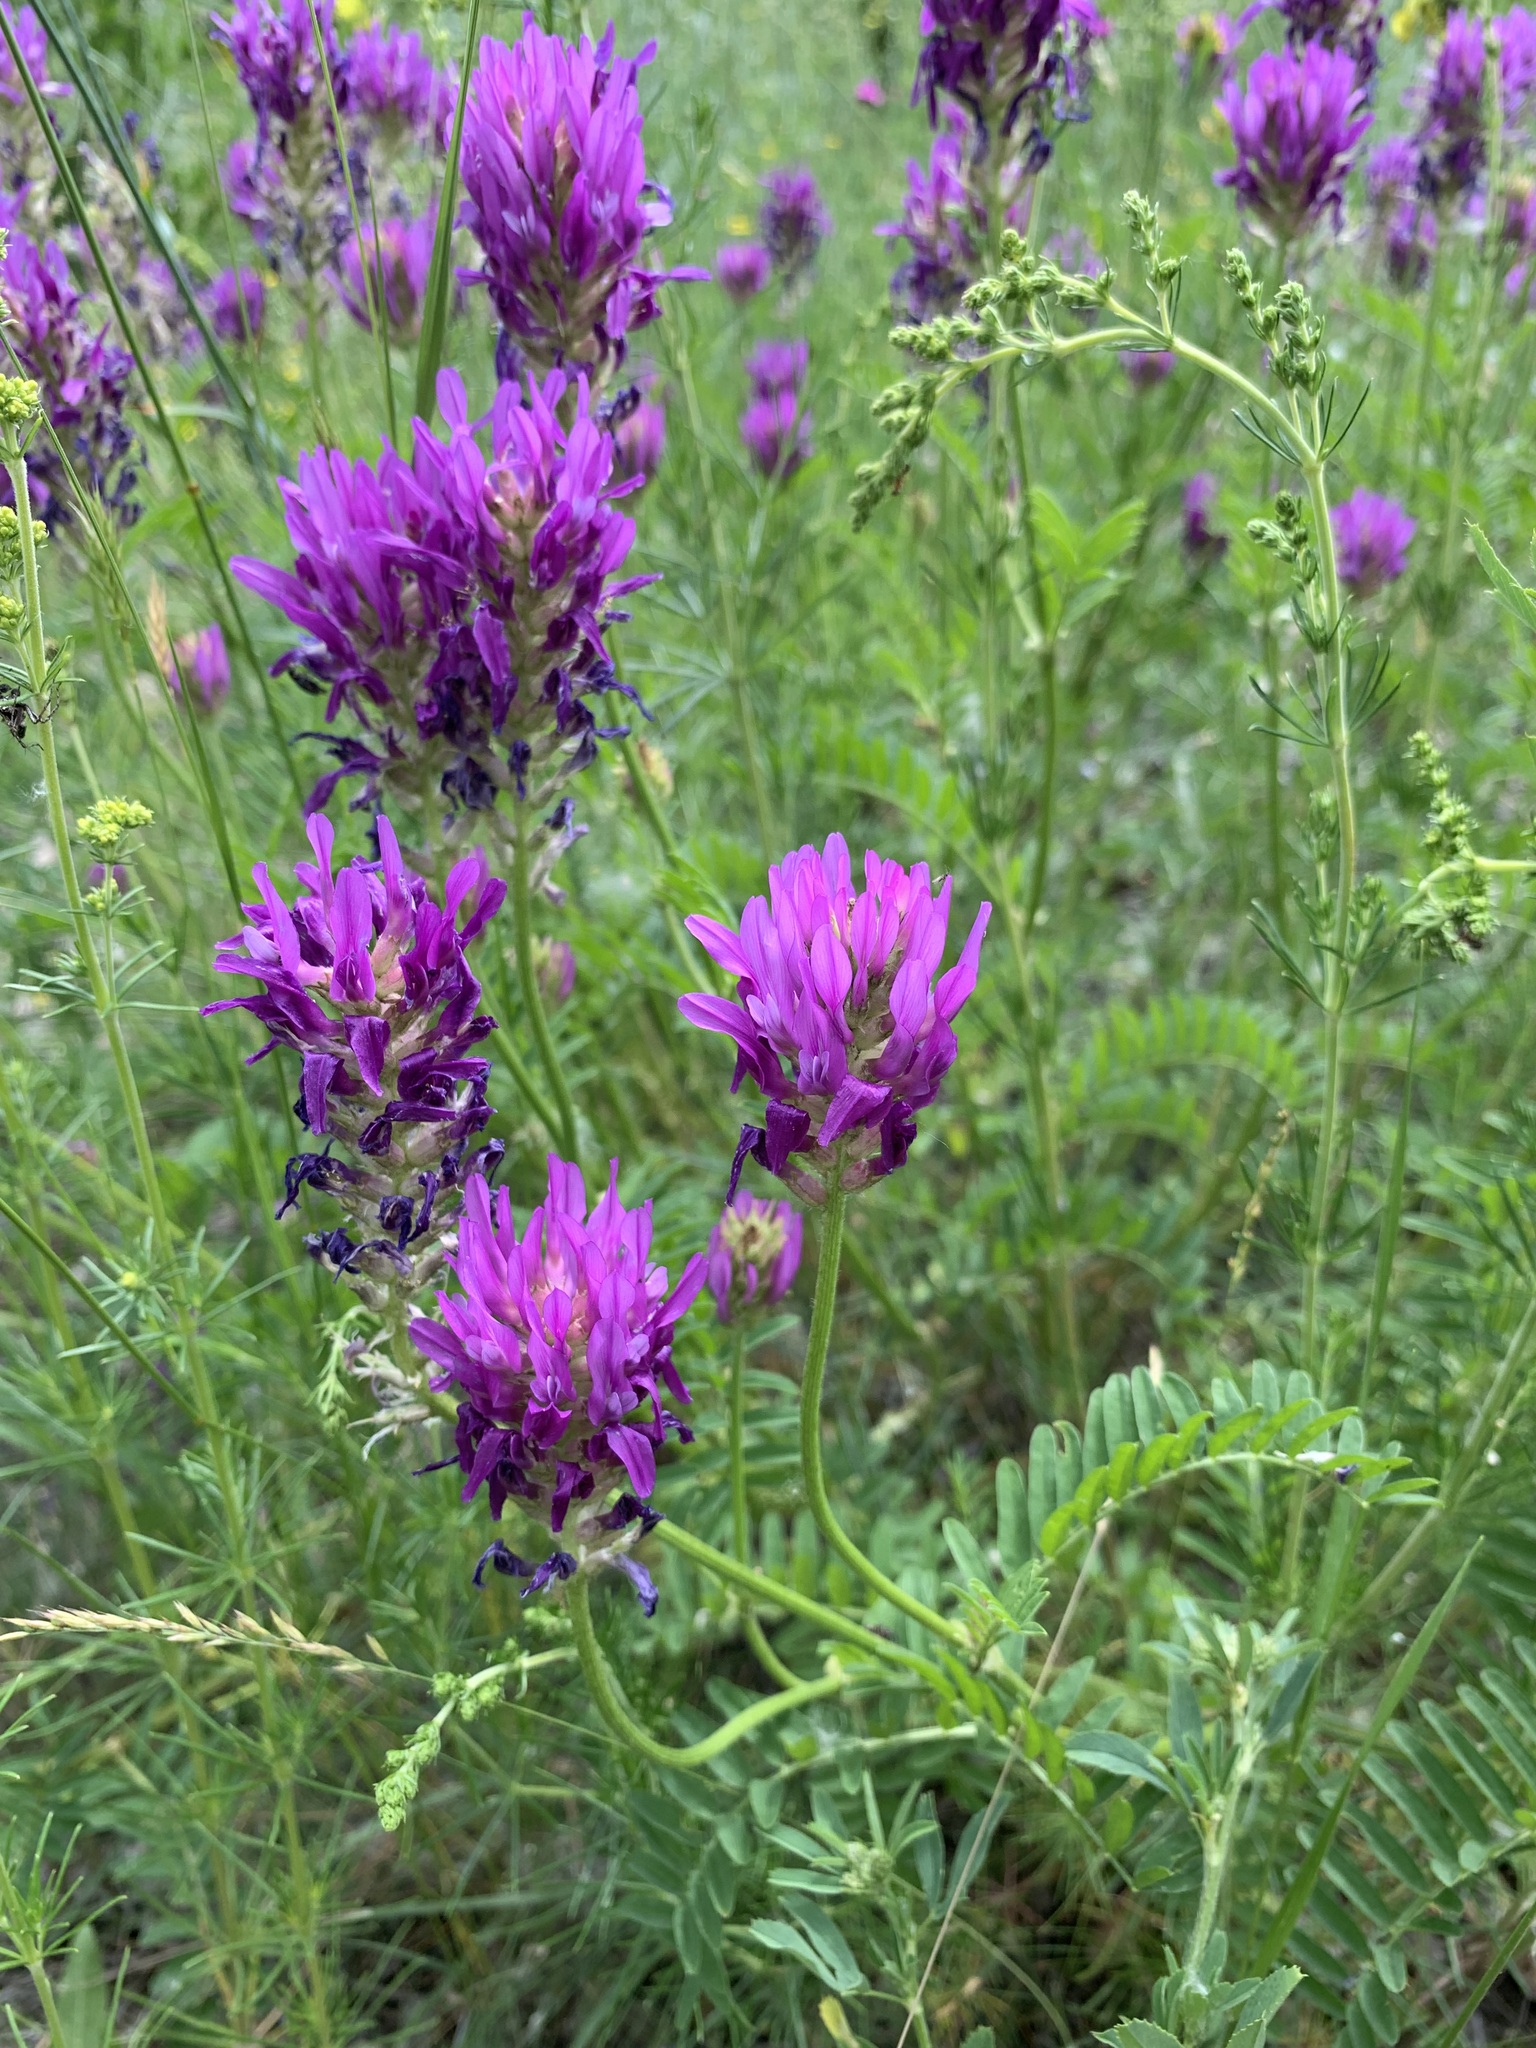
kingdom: Plantae
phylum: Tracheophyta
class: Magnoliopsida
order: Fabales
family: Fabaceae
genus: Astragalus
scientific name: Astragalus onobrychis
